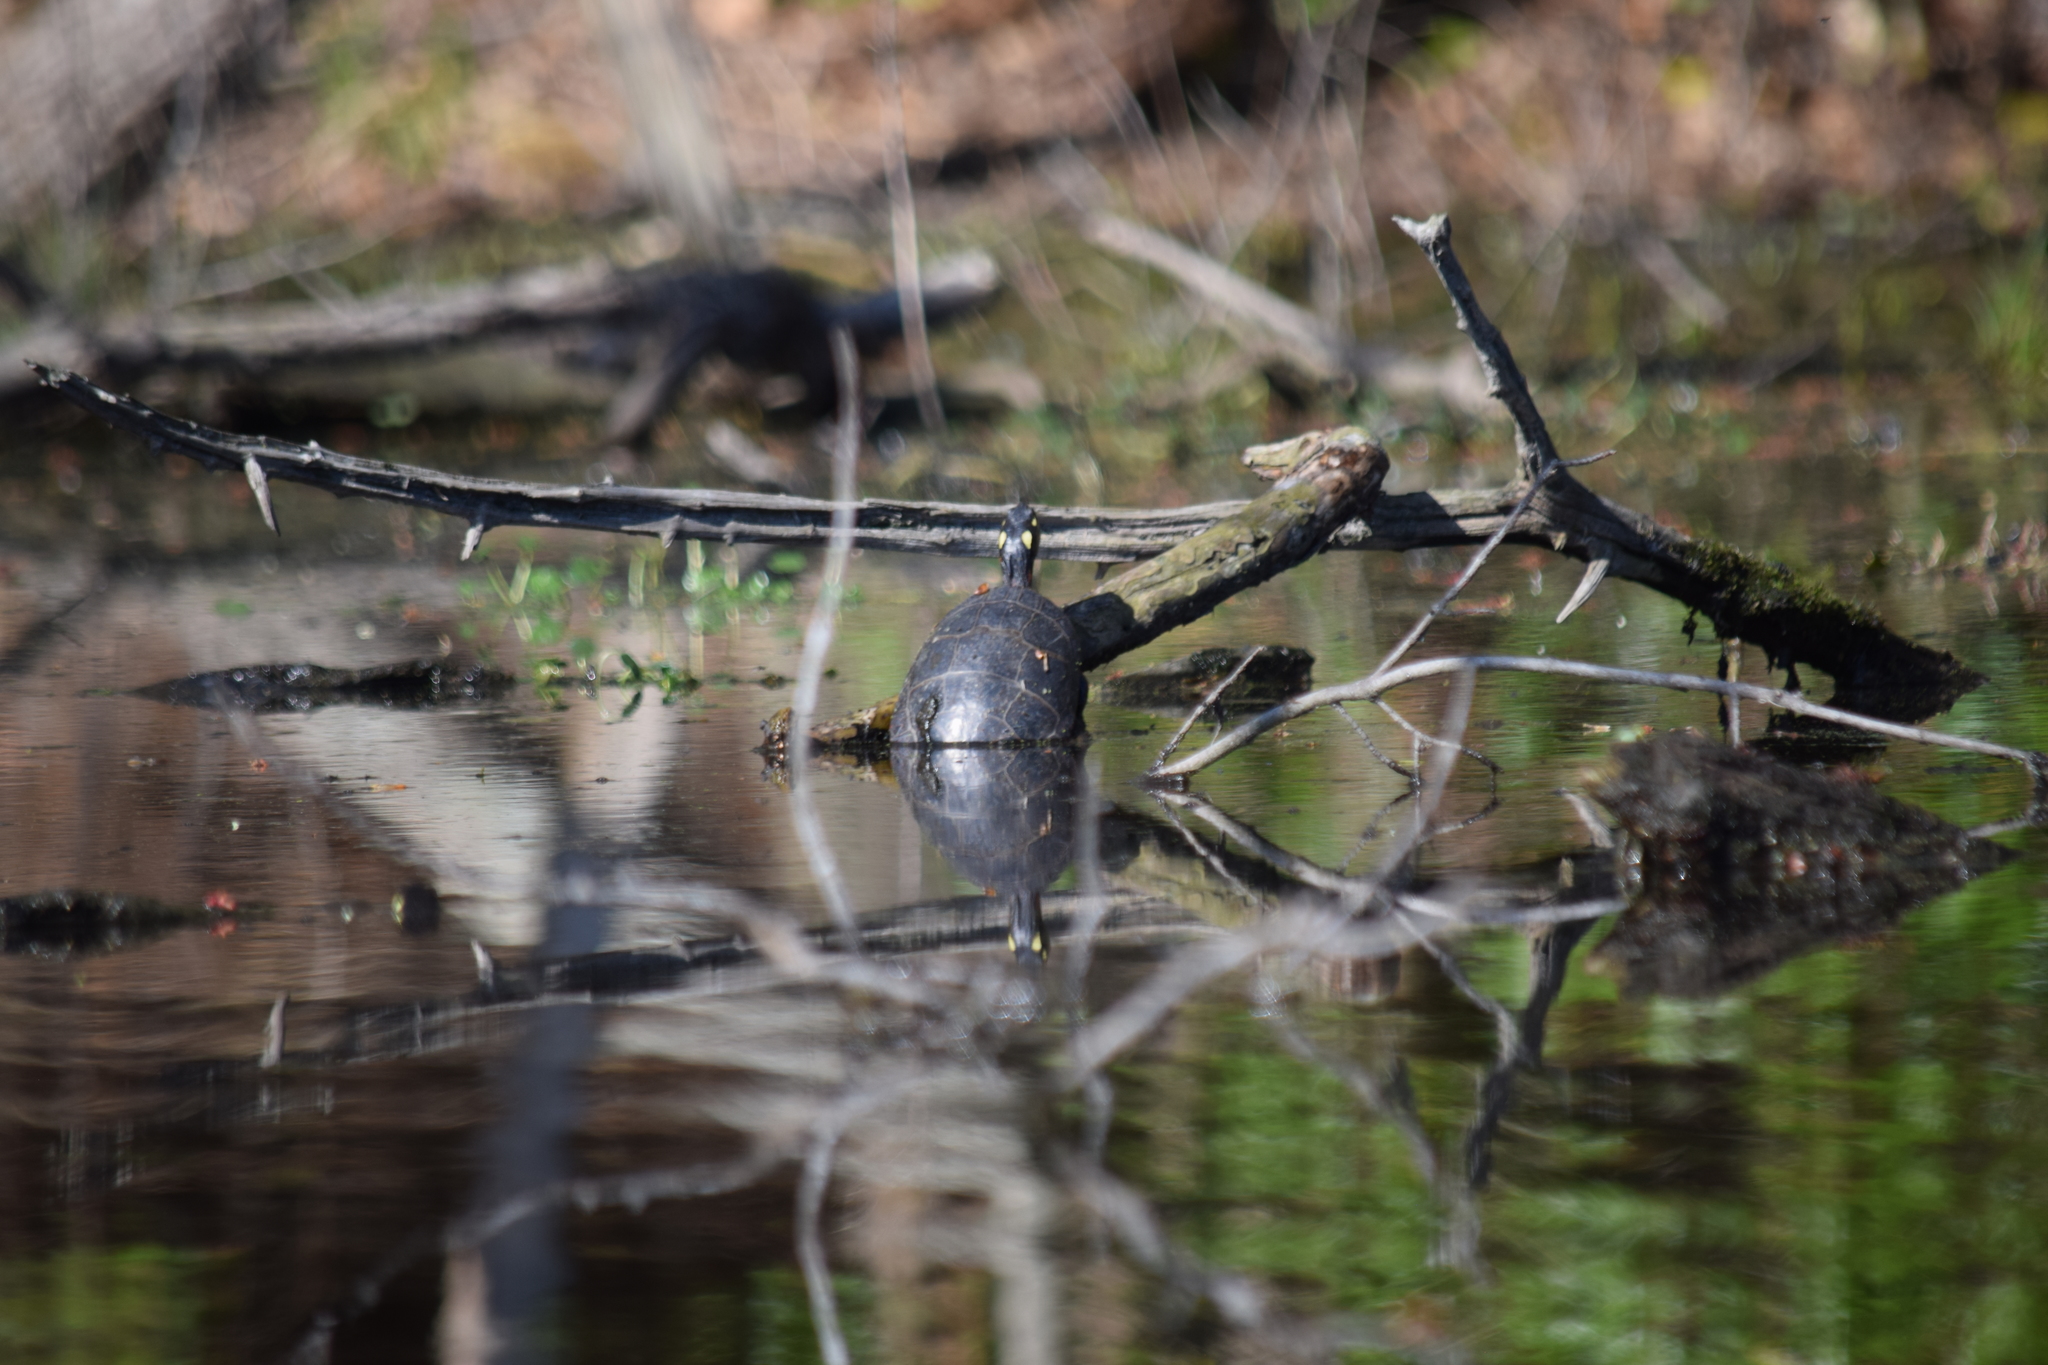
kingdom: Animalia
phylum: Chordata
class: Testudines
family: Emydidae
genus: Chrysemys
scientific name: Chrysemys picta
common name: Painted turtle
